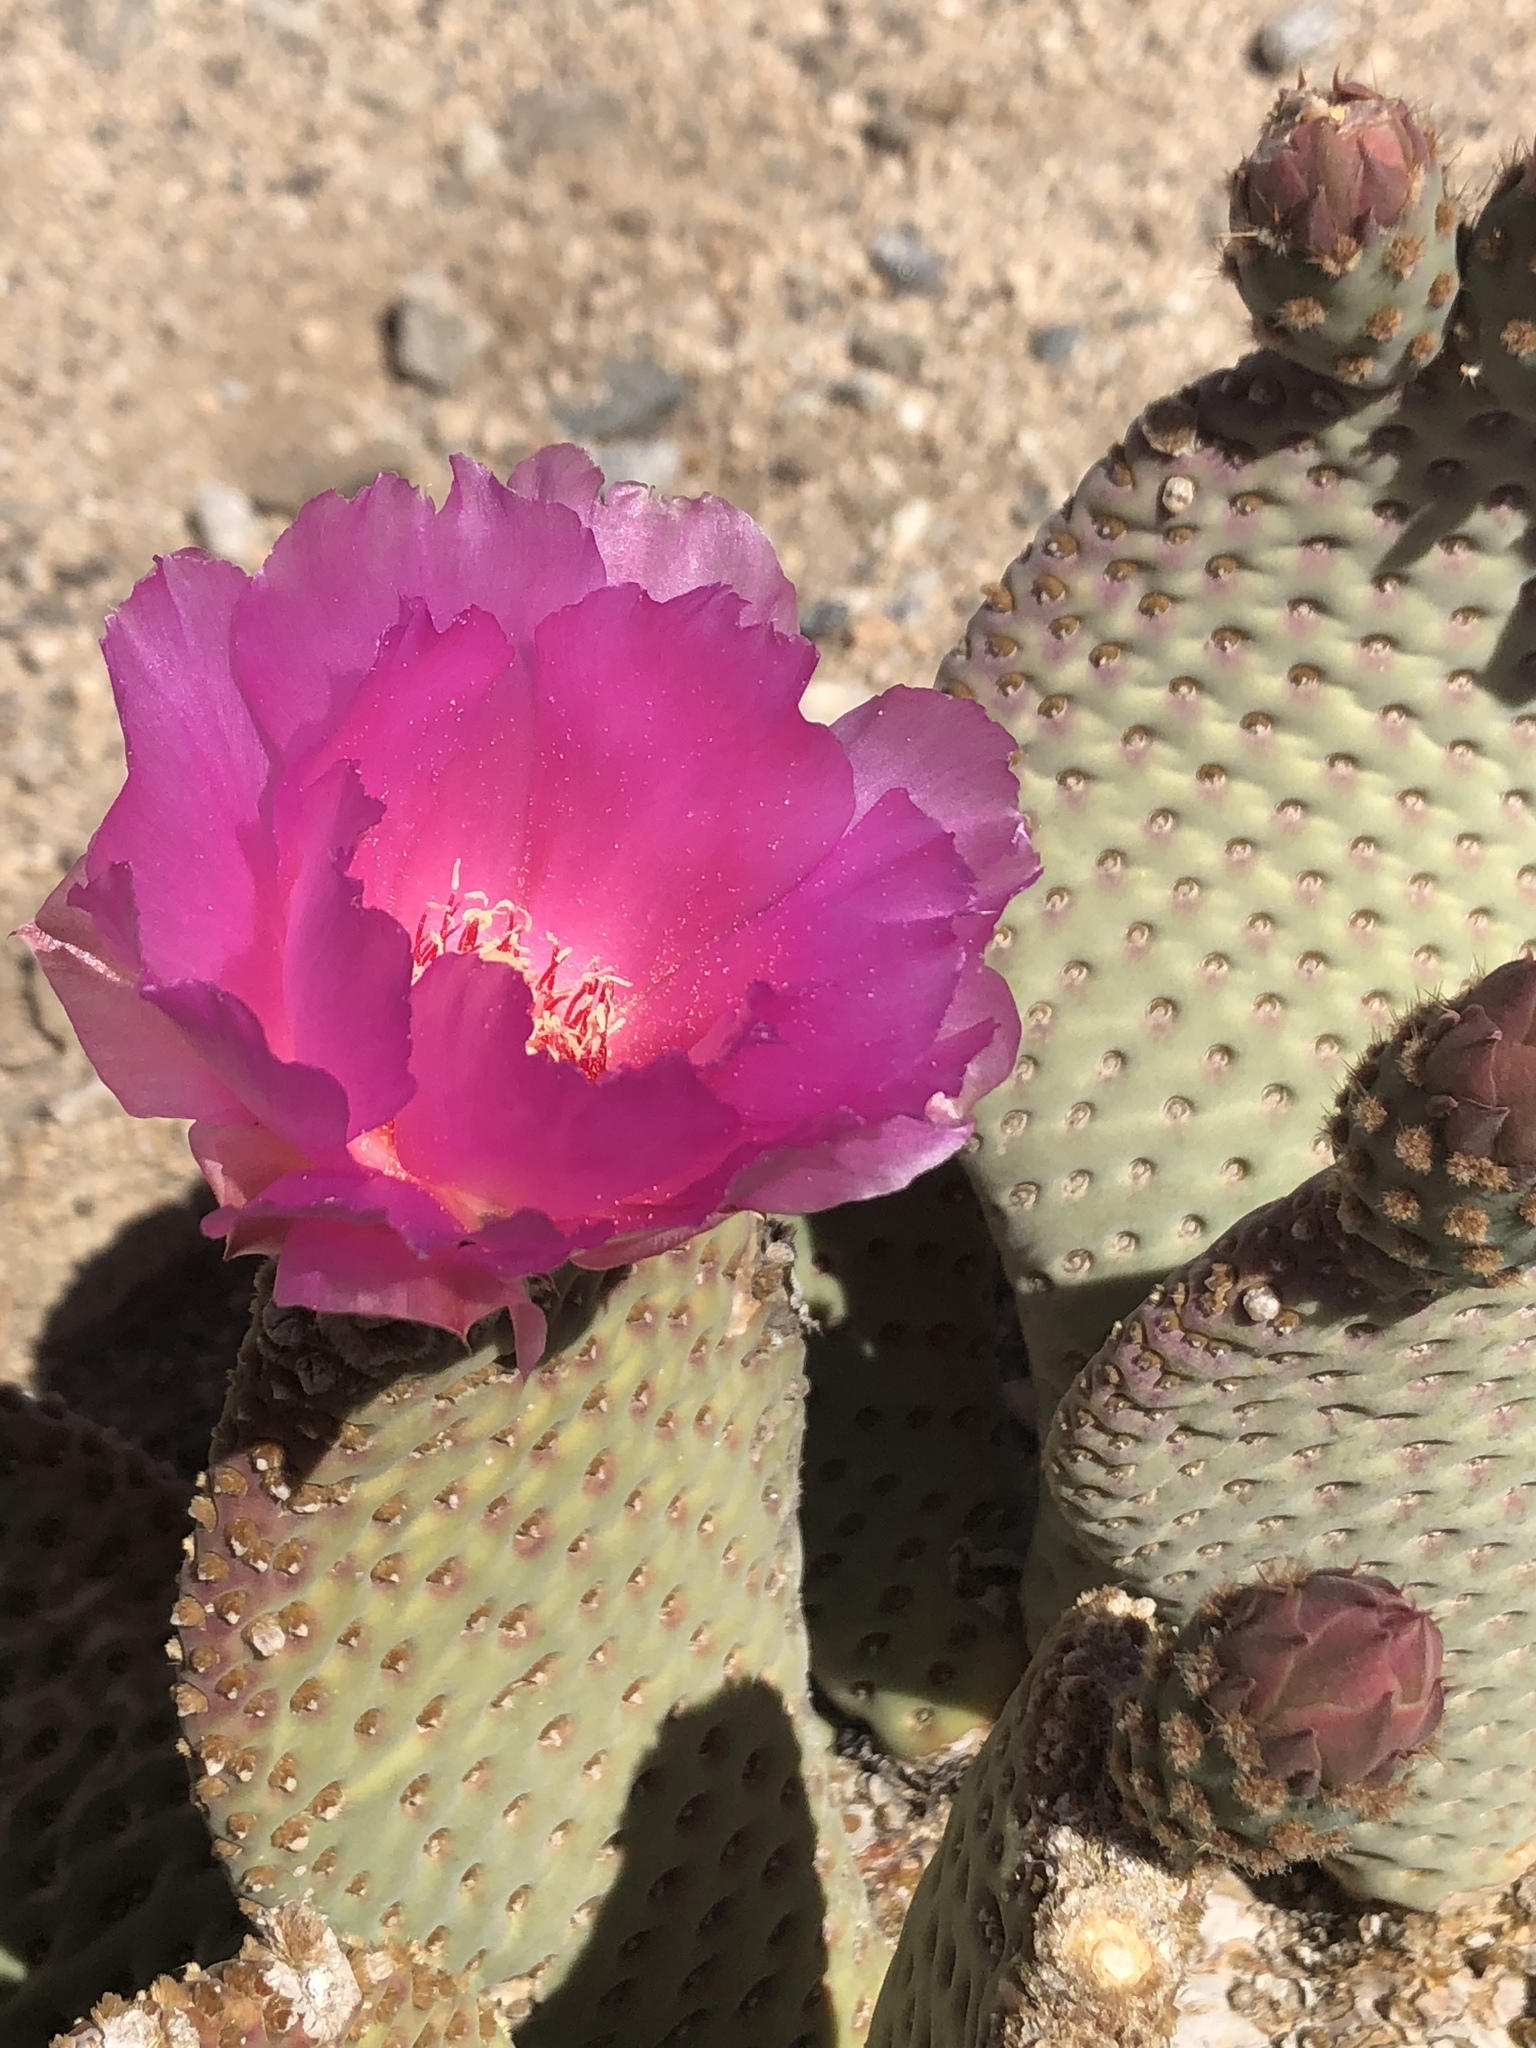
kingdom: Plantae
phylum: Tracheophyta
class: Magnoliopsida
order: Caryophyllales
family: Cactaceae
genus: Opuntia
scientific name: Opuntia basilaris
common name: Beavertail prickly-pear
